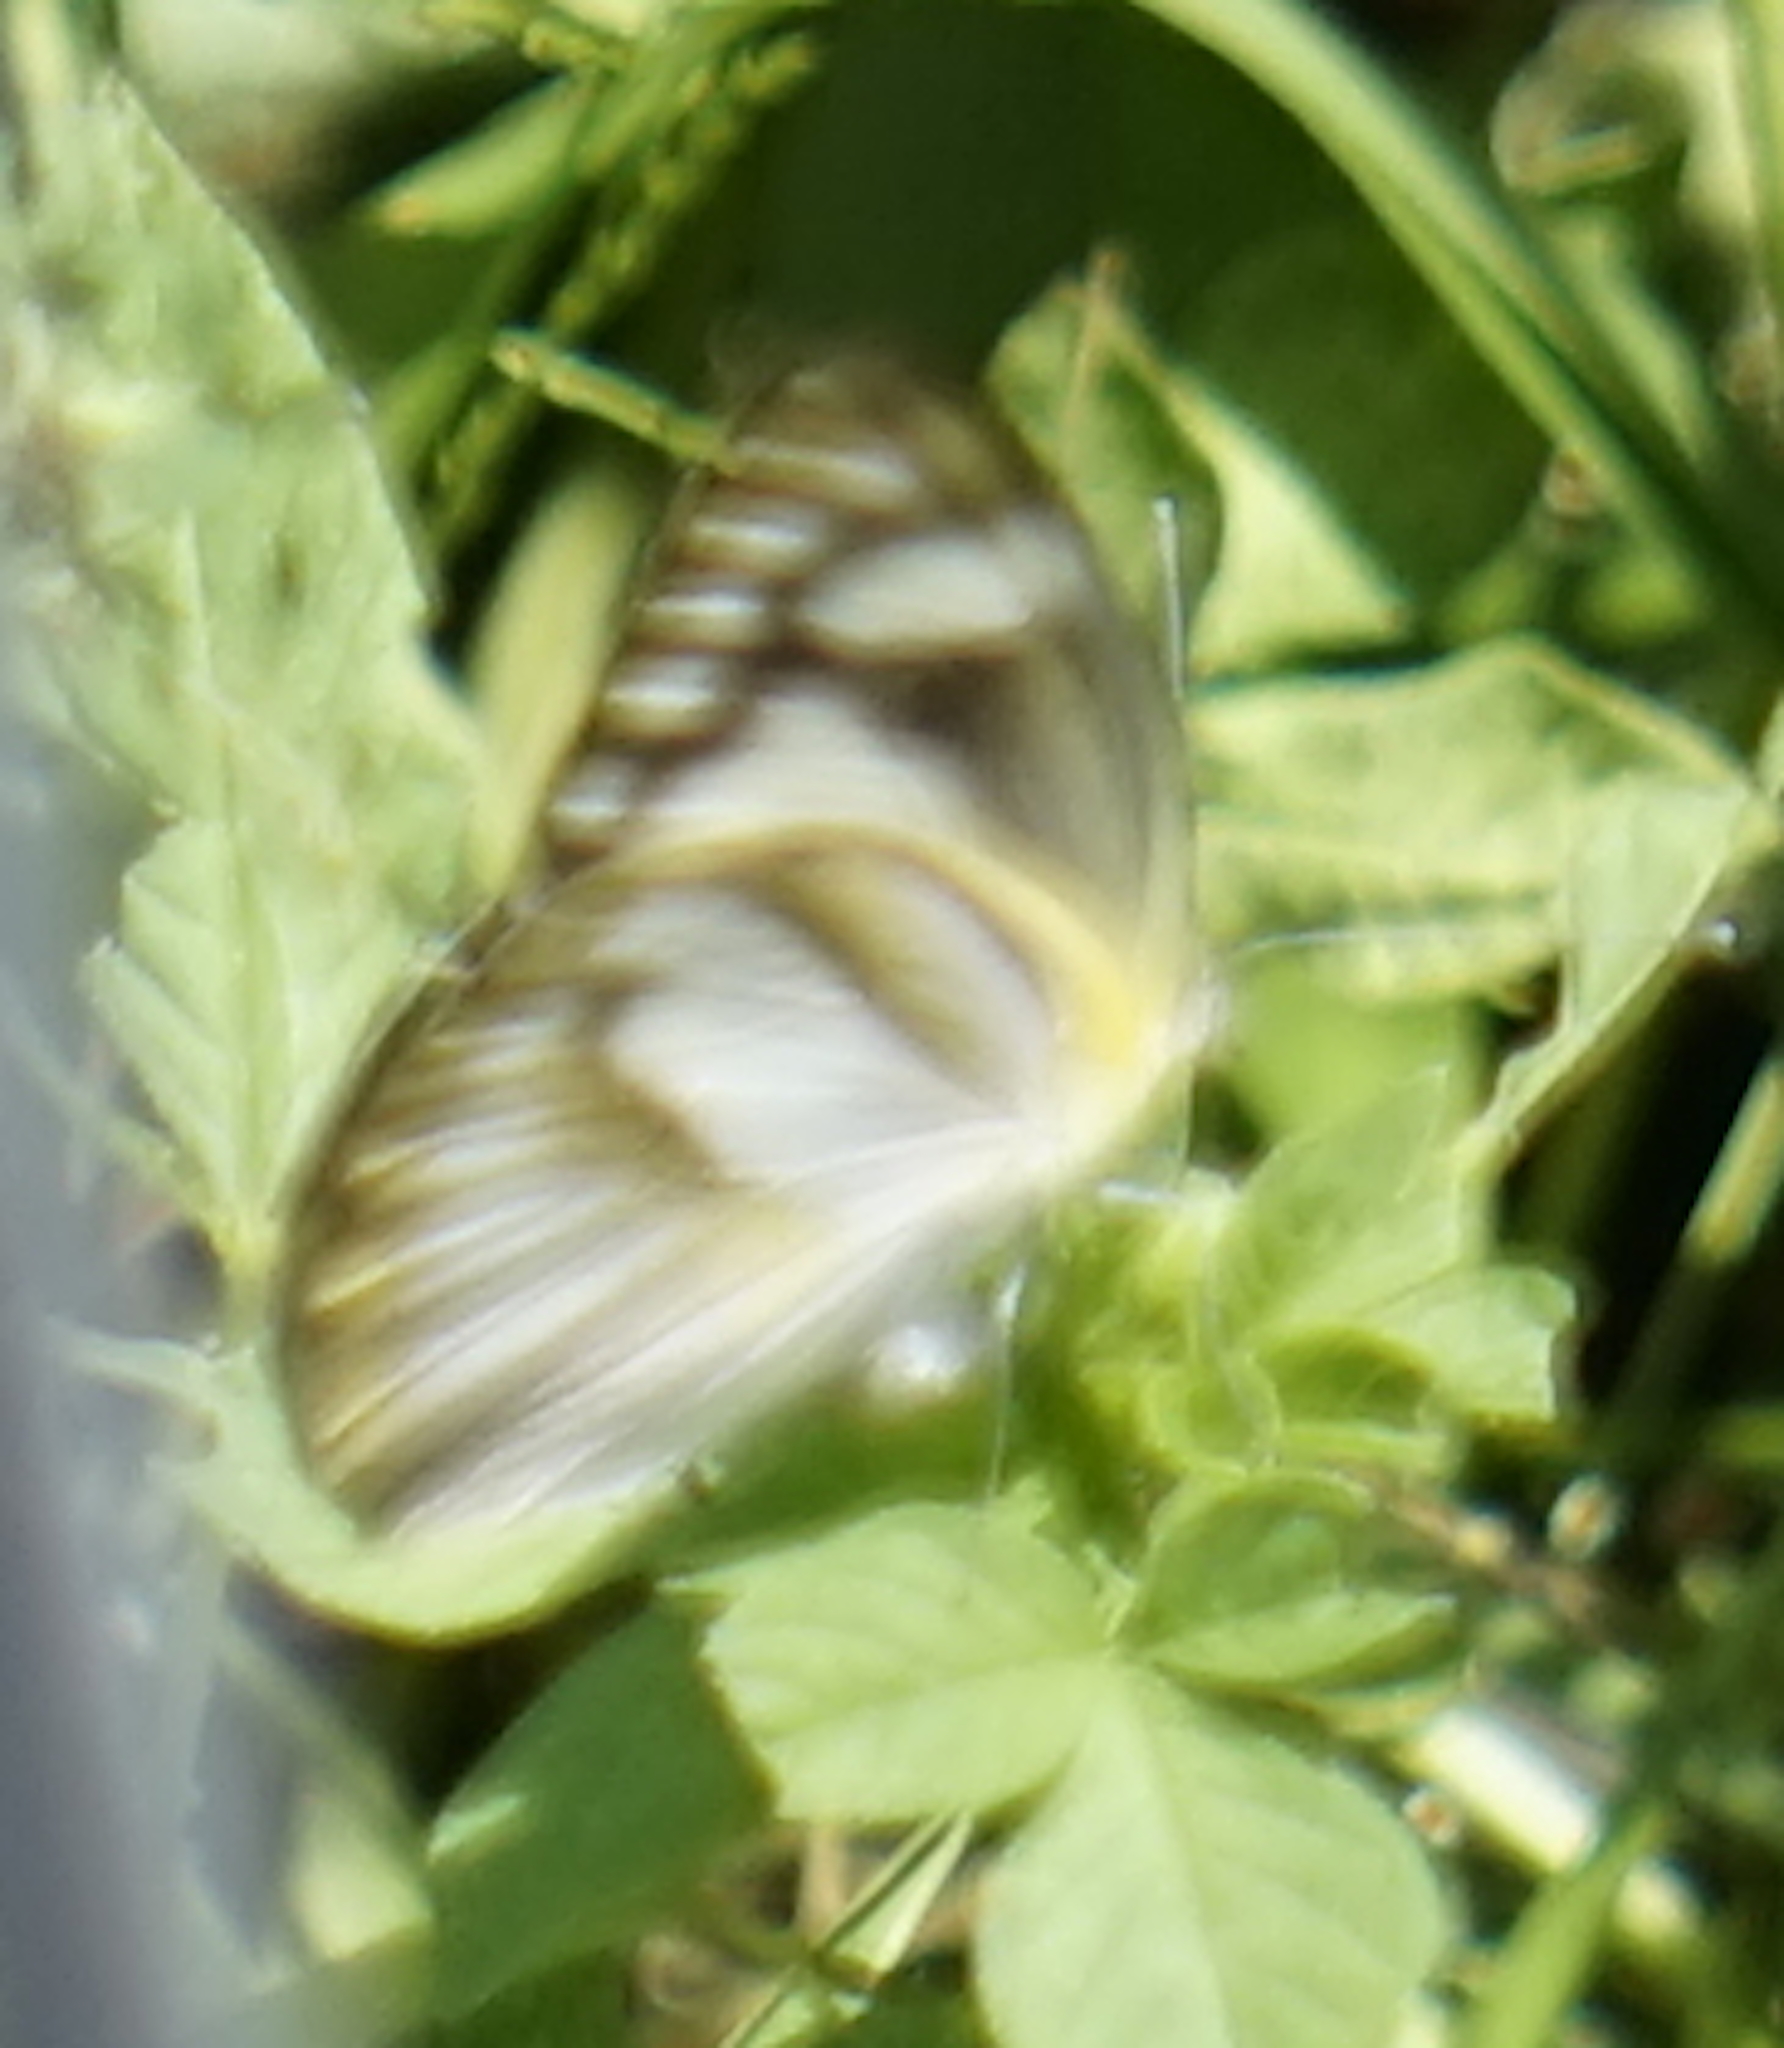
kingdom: Animalia
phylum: Arthropoda
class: Insecta
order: Lepidoptera
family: Pieridae
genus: Appias
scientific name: Appias libythea
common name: Striped albatross
